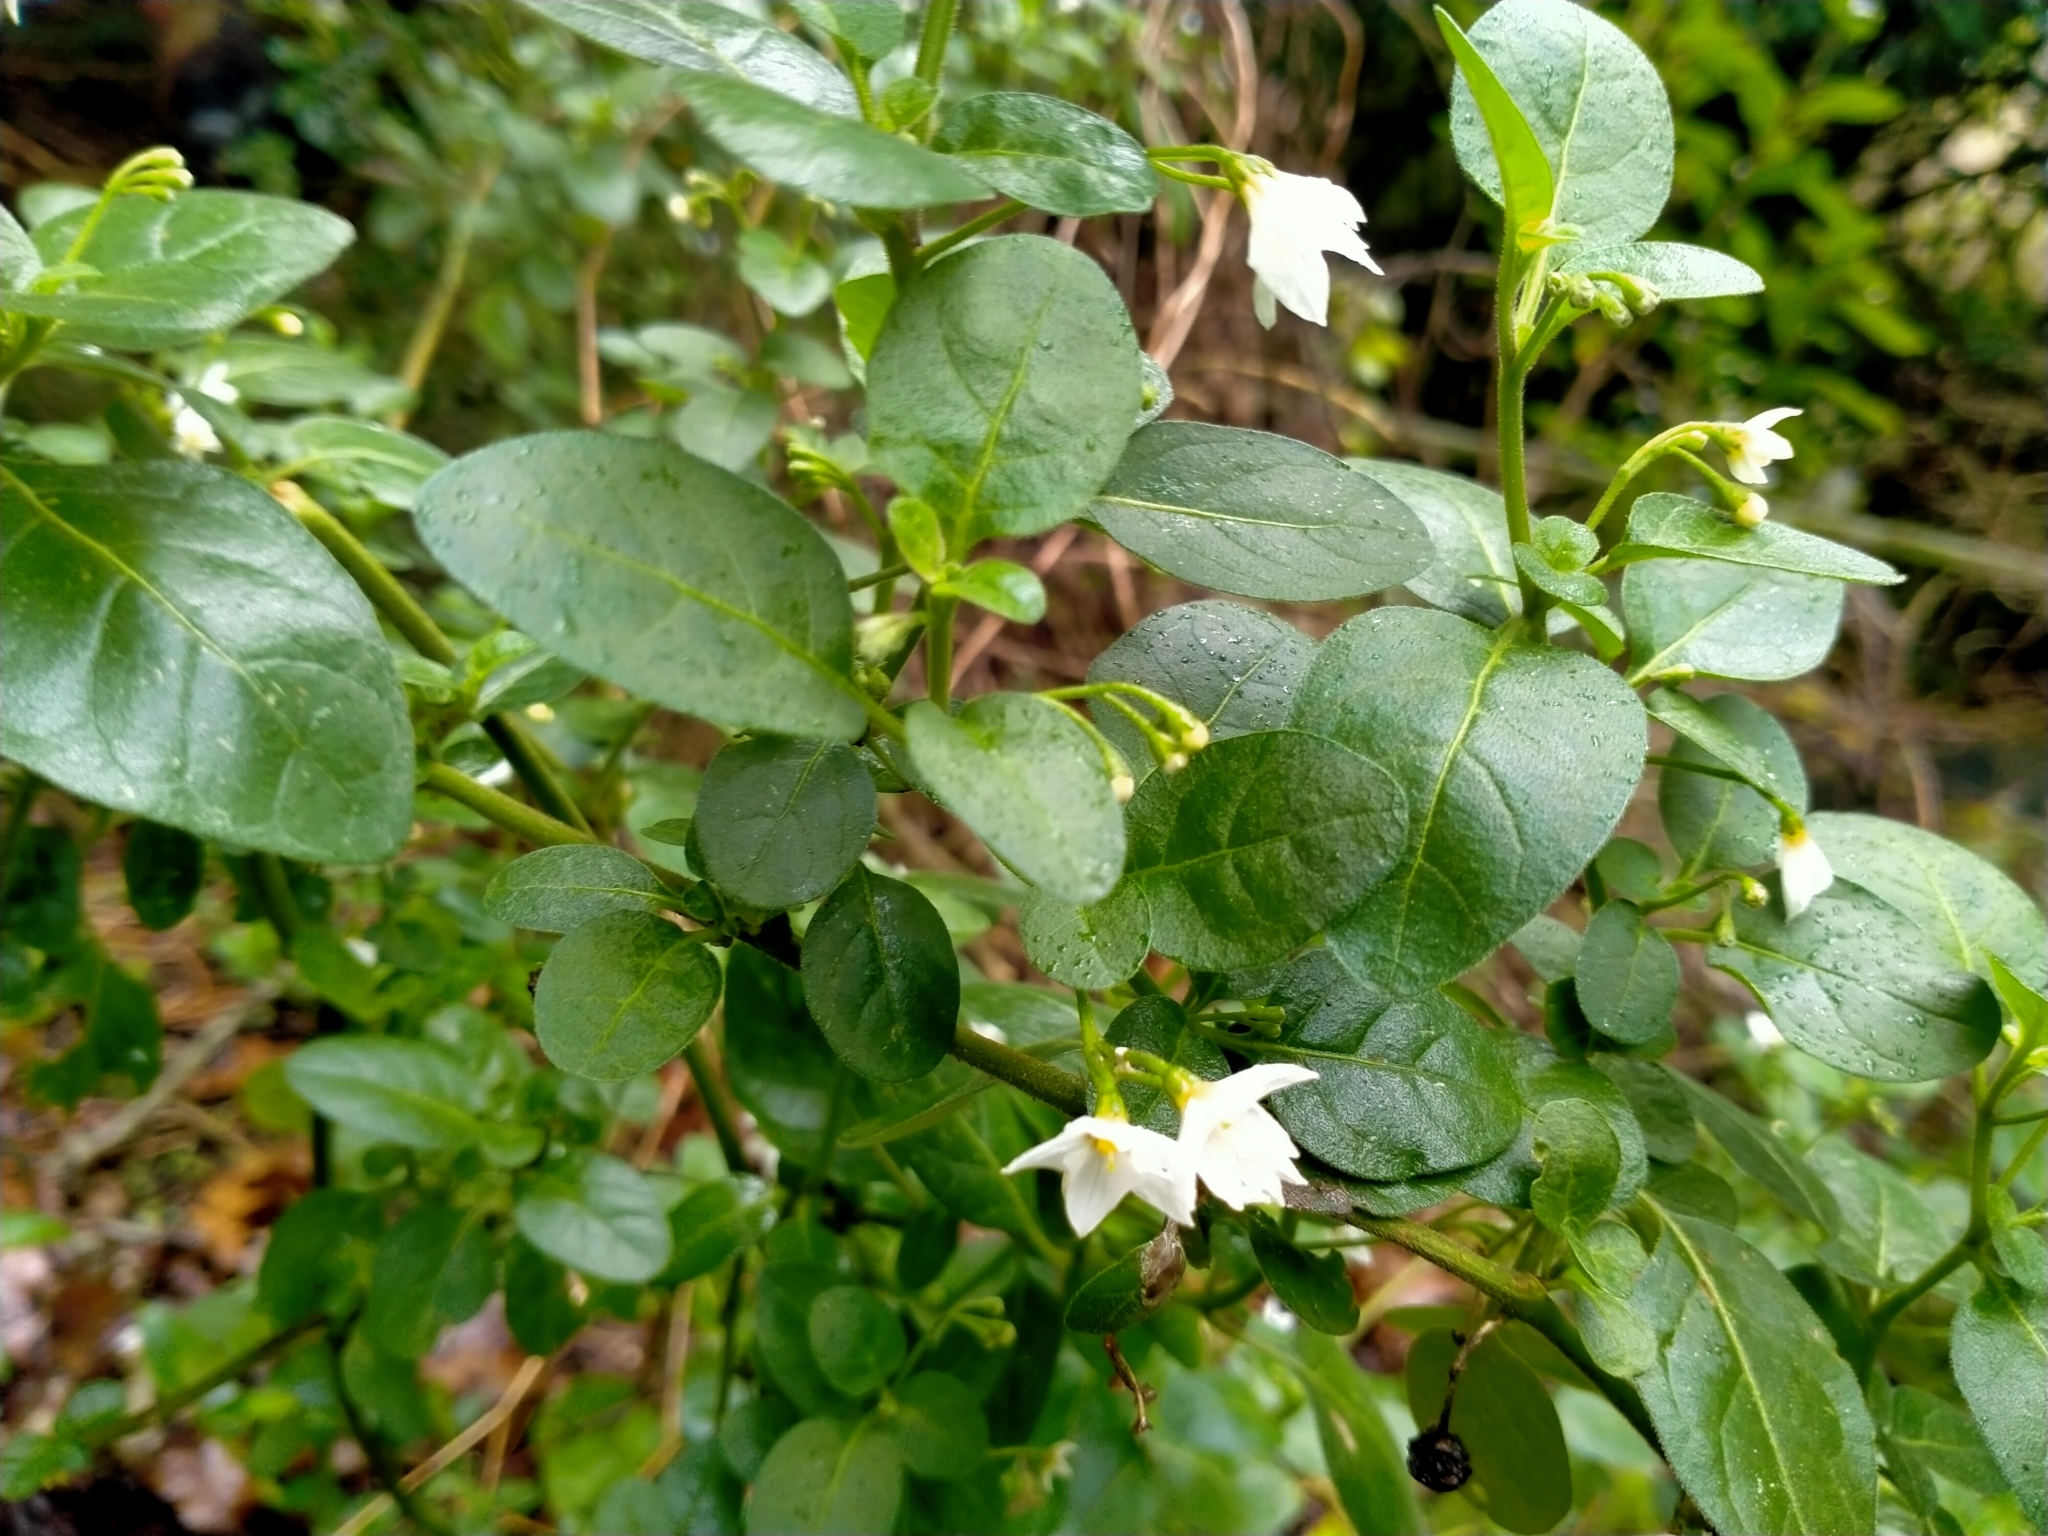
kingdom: Plantae
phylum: Tracheophyta
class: Magnoliopsida
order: Solanales
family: Solanaceae
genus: Solanum
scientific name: Solanum chenopodioides
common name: Tall nightshade
